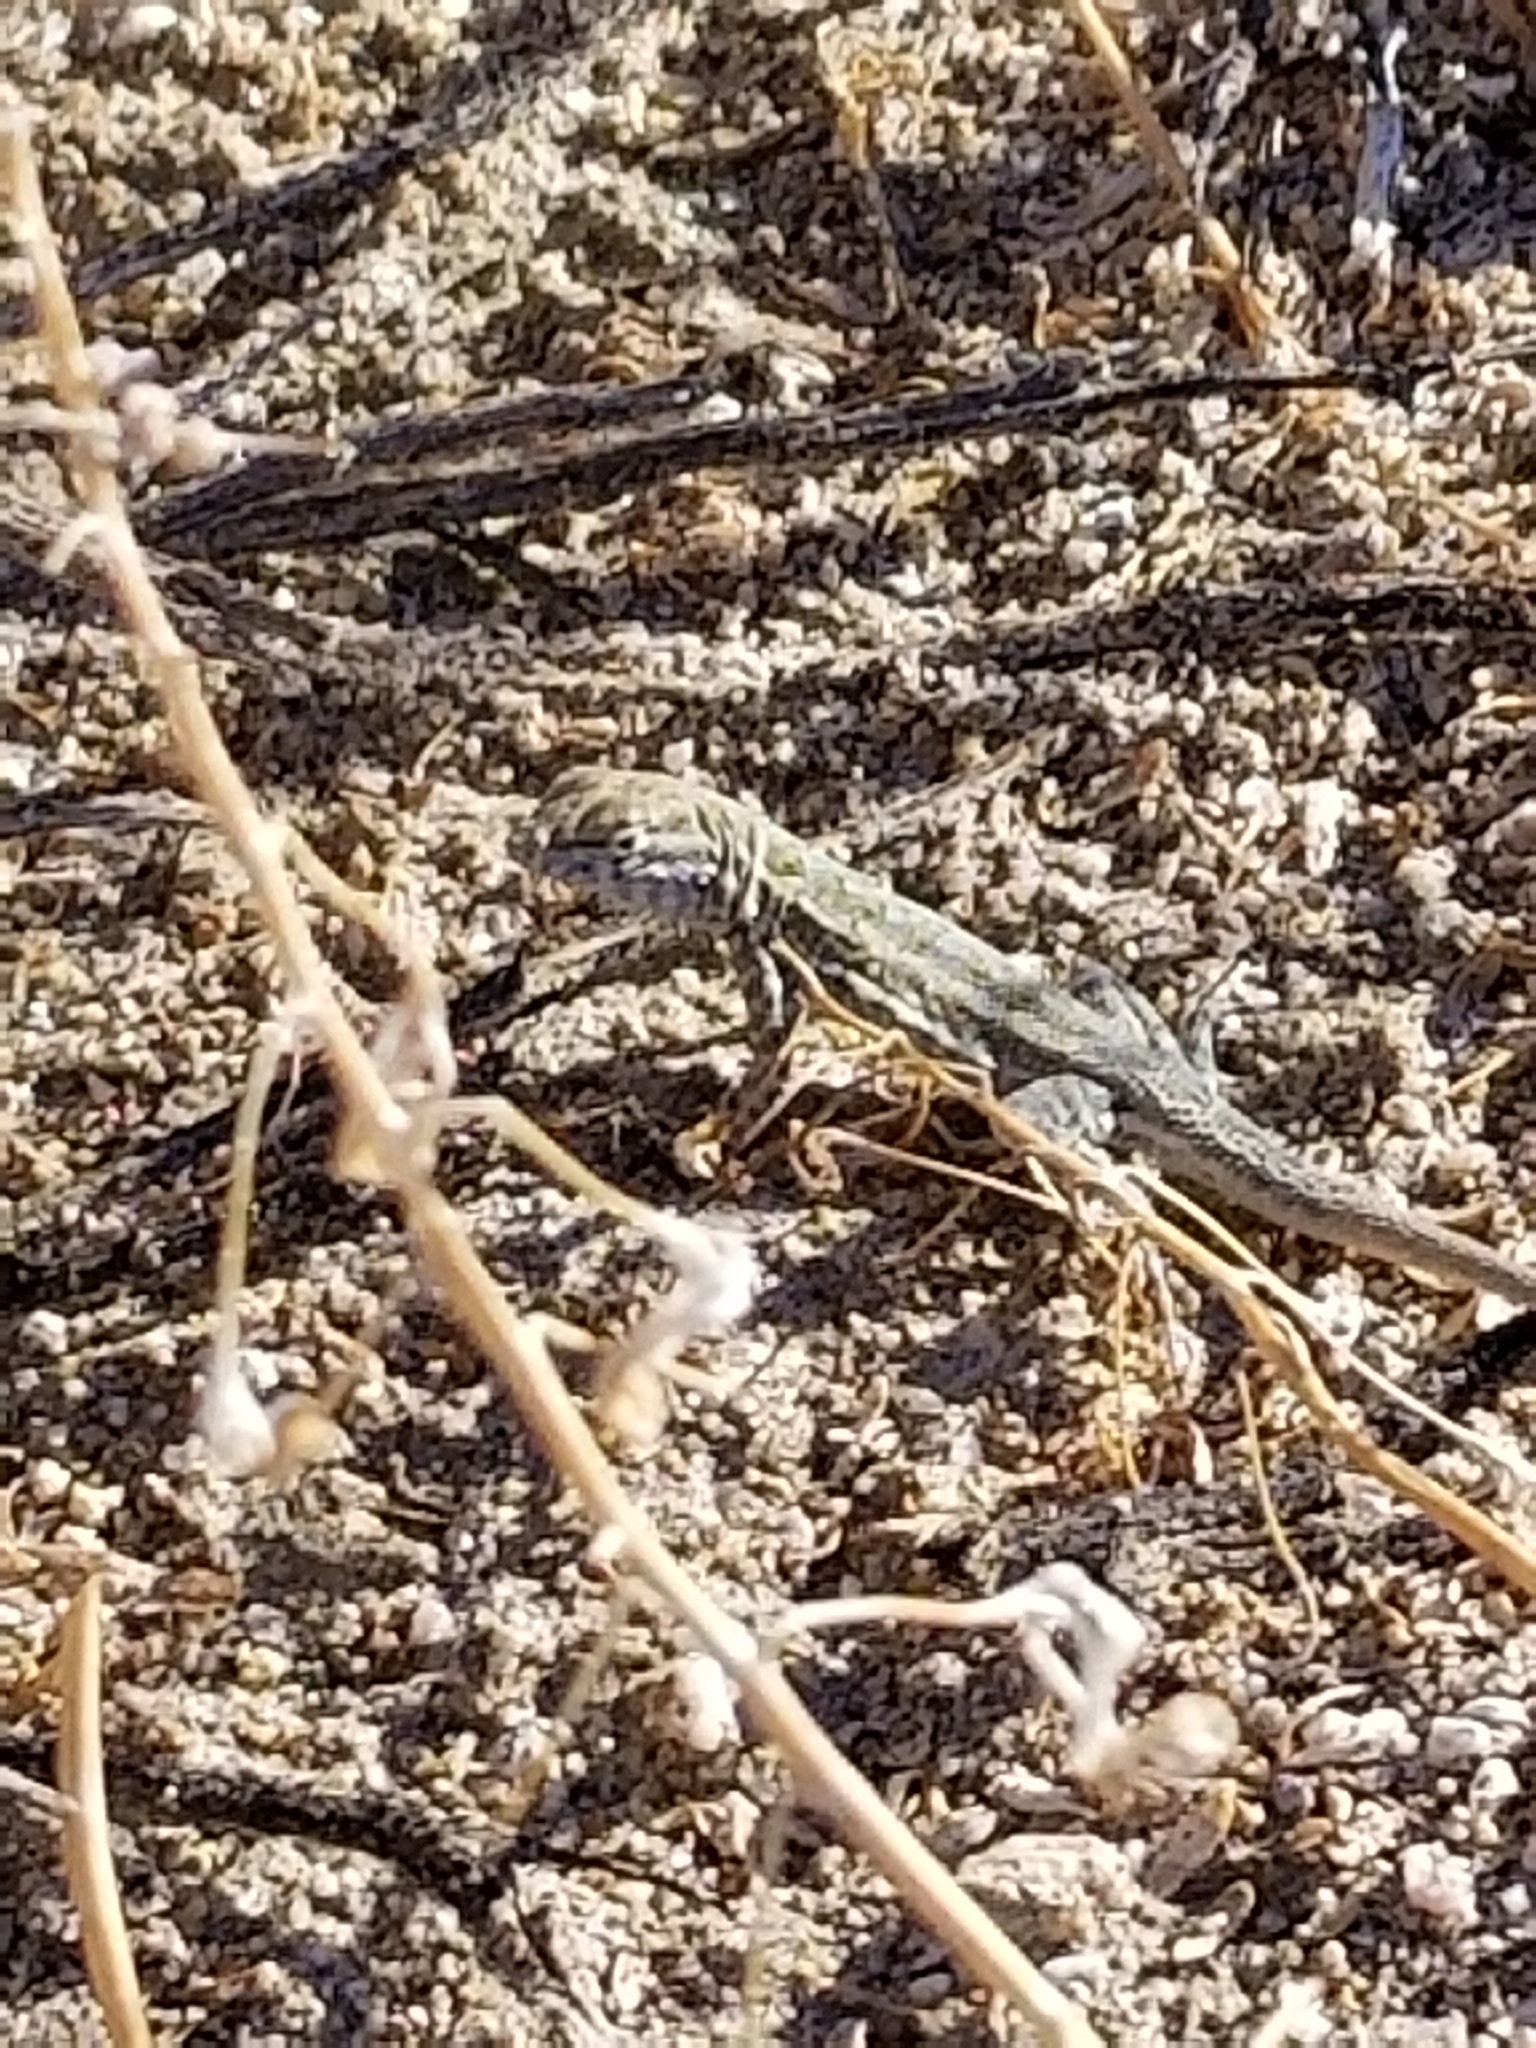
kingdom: Animalia
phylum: Chordata
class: Squamata
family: Phrynosomatidae
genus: Uta
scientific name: Uta stansburiana
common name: Side-blotched lizard
